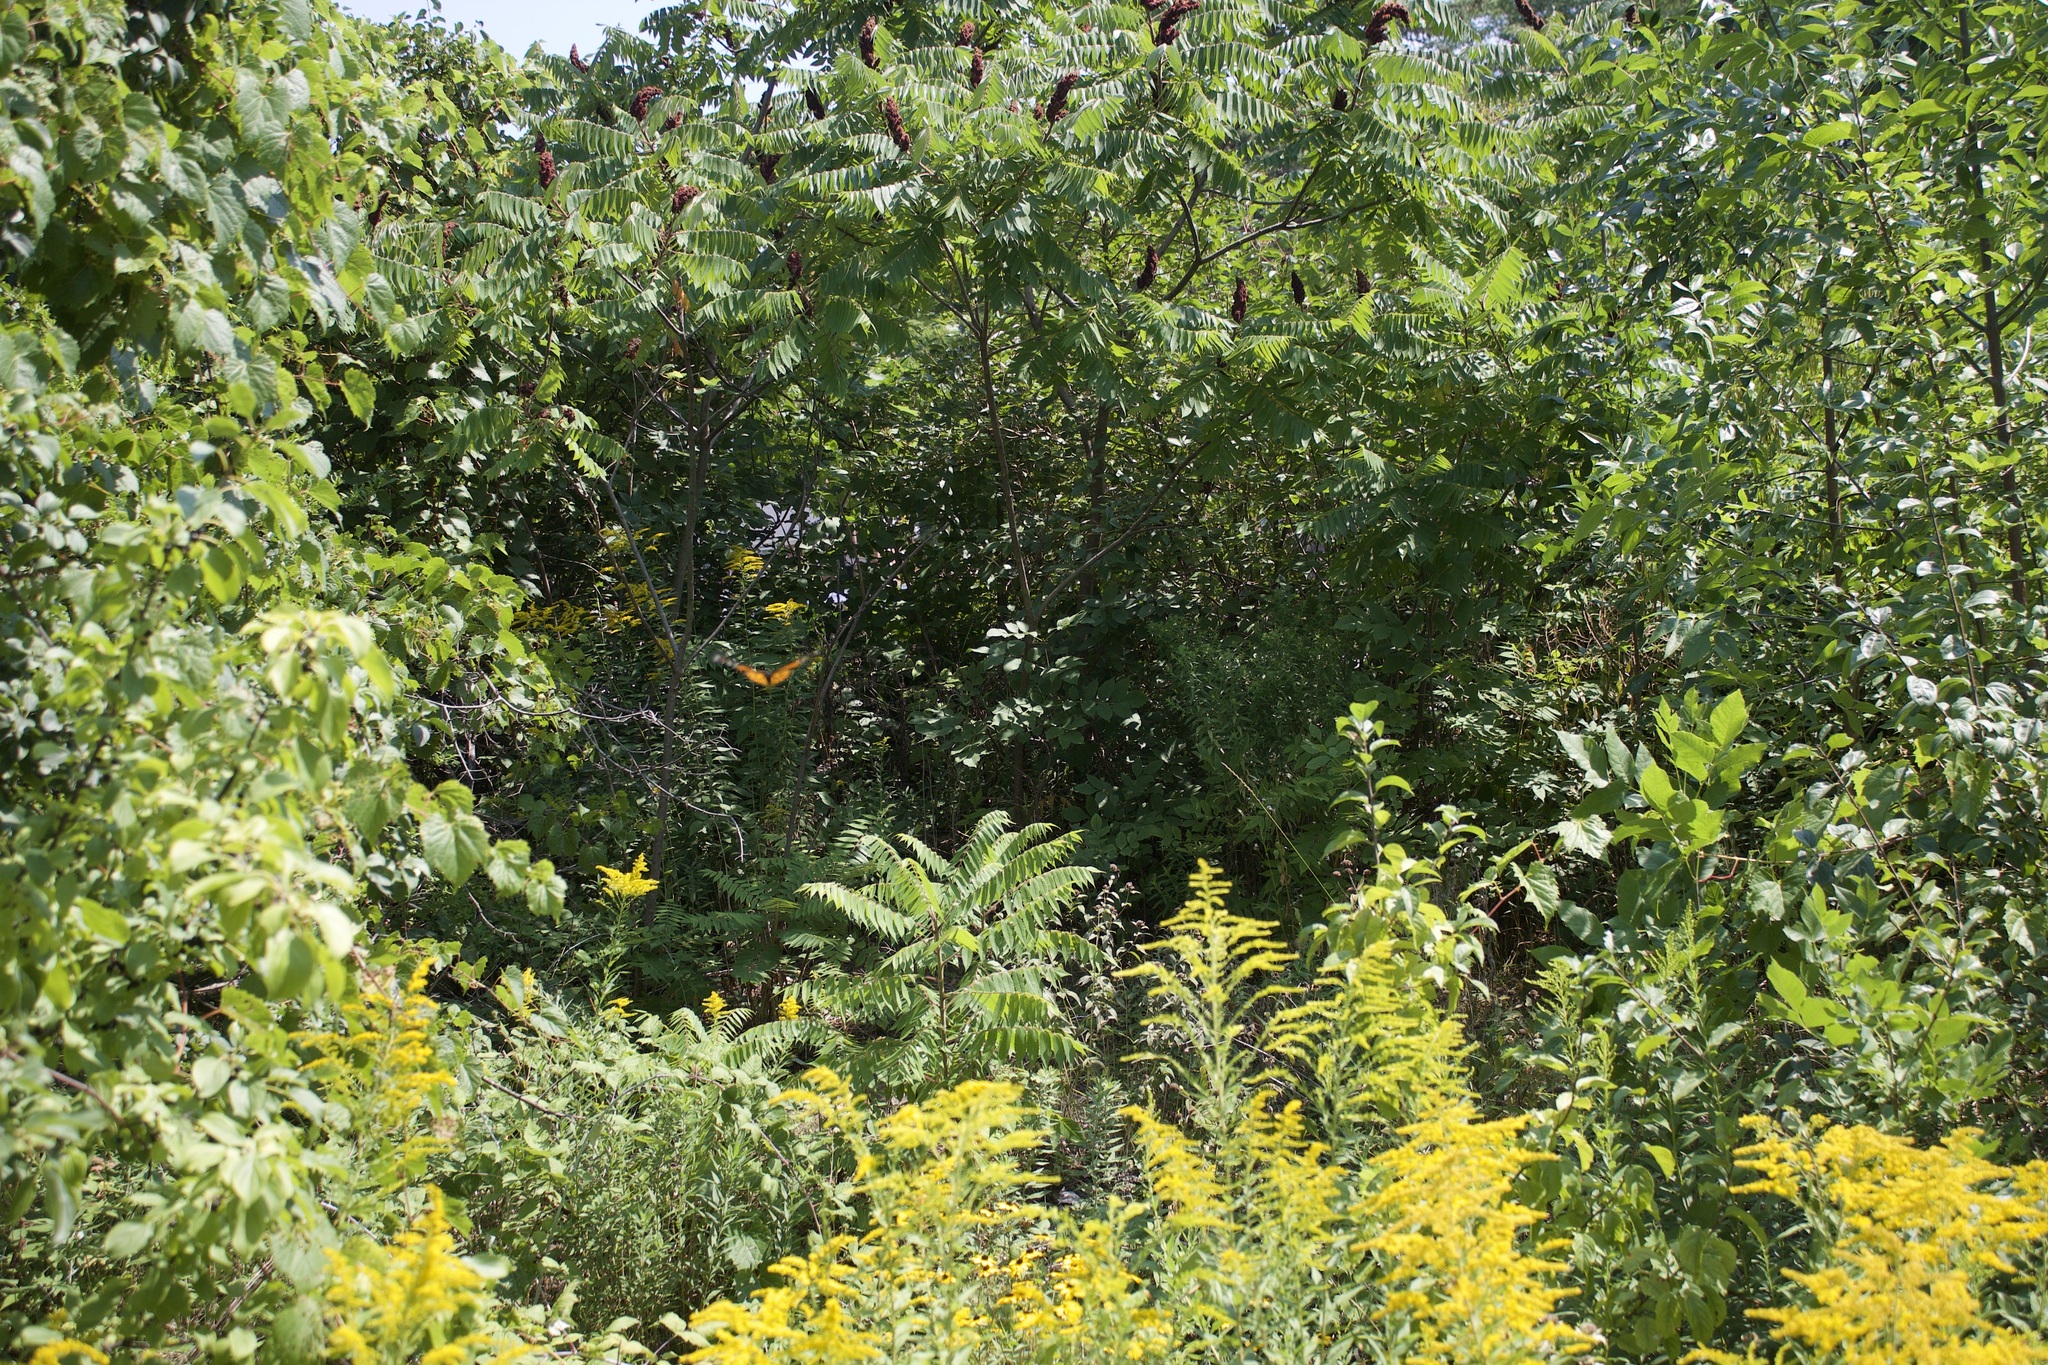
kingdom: Animalia
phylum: Arthropoda
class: Insecta
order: Lepidoptera
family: Nymphalidae
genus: Danaus
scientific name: Danaus plexippus
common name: Monarch
